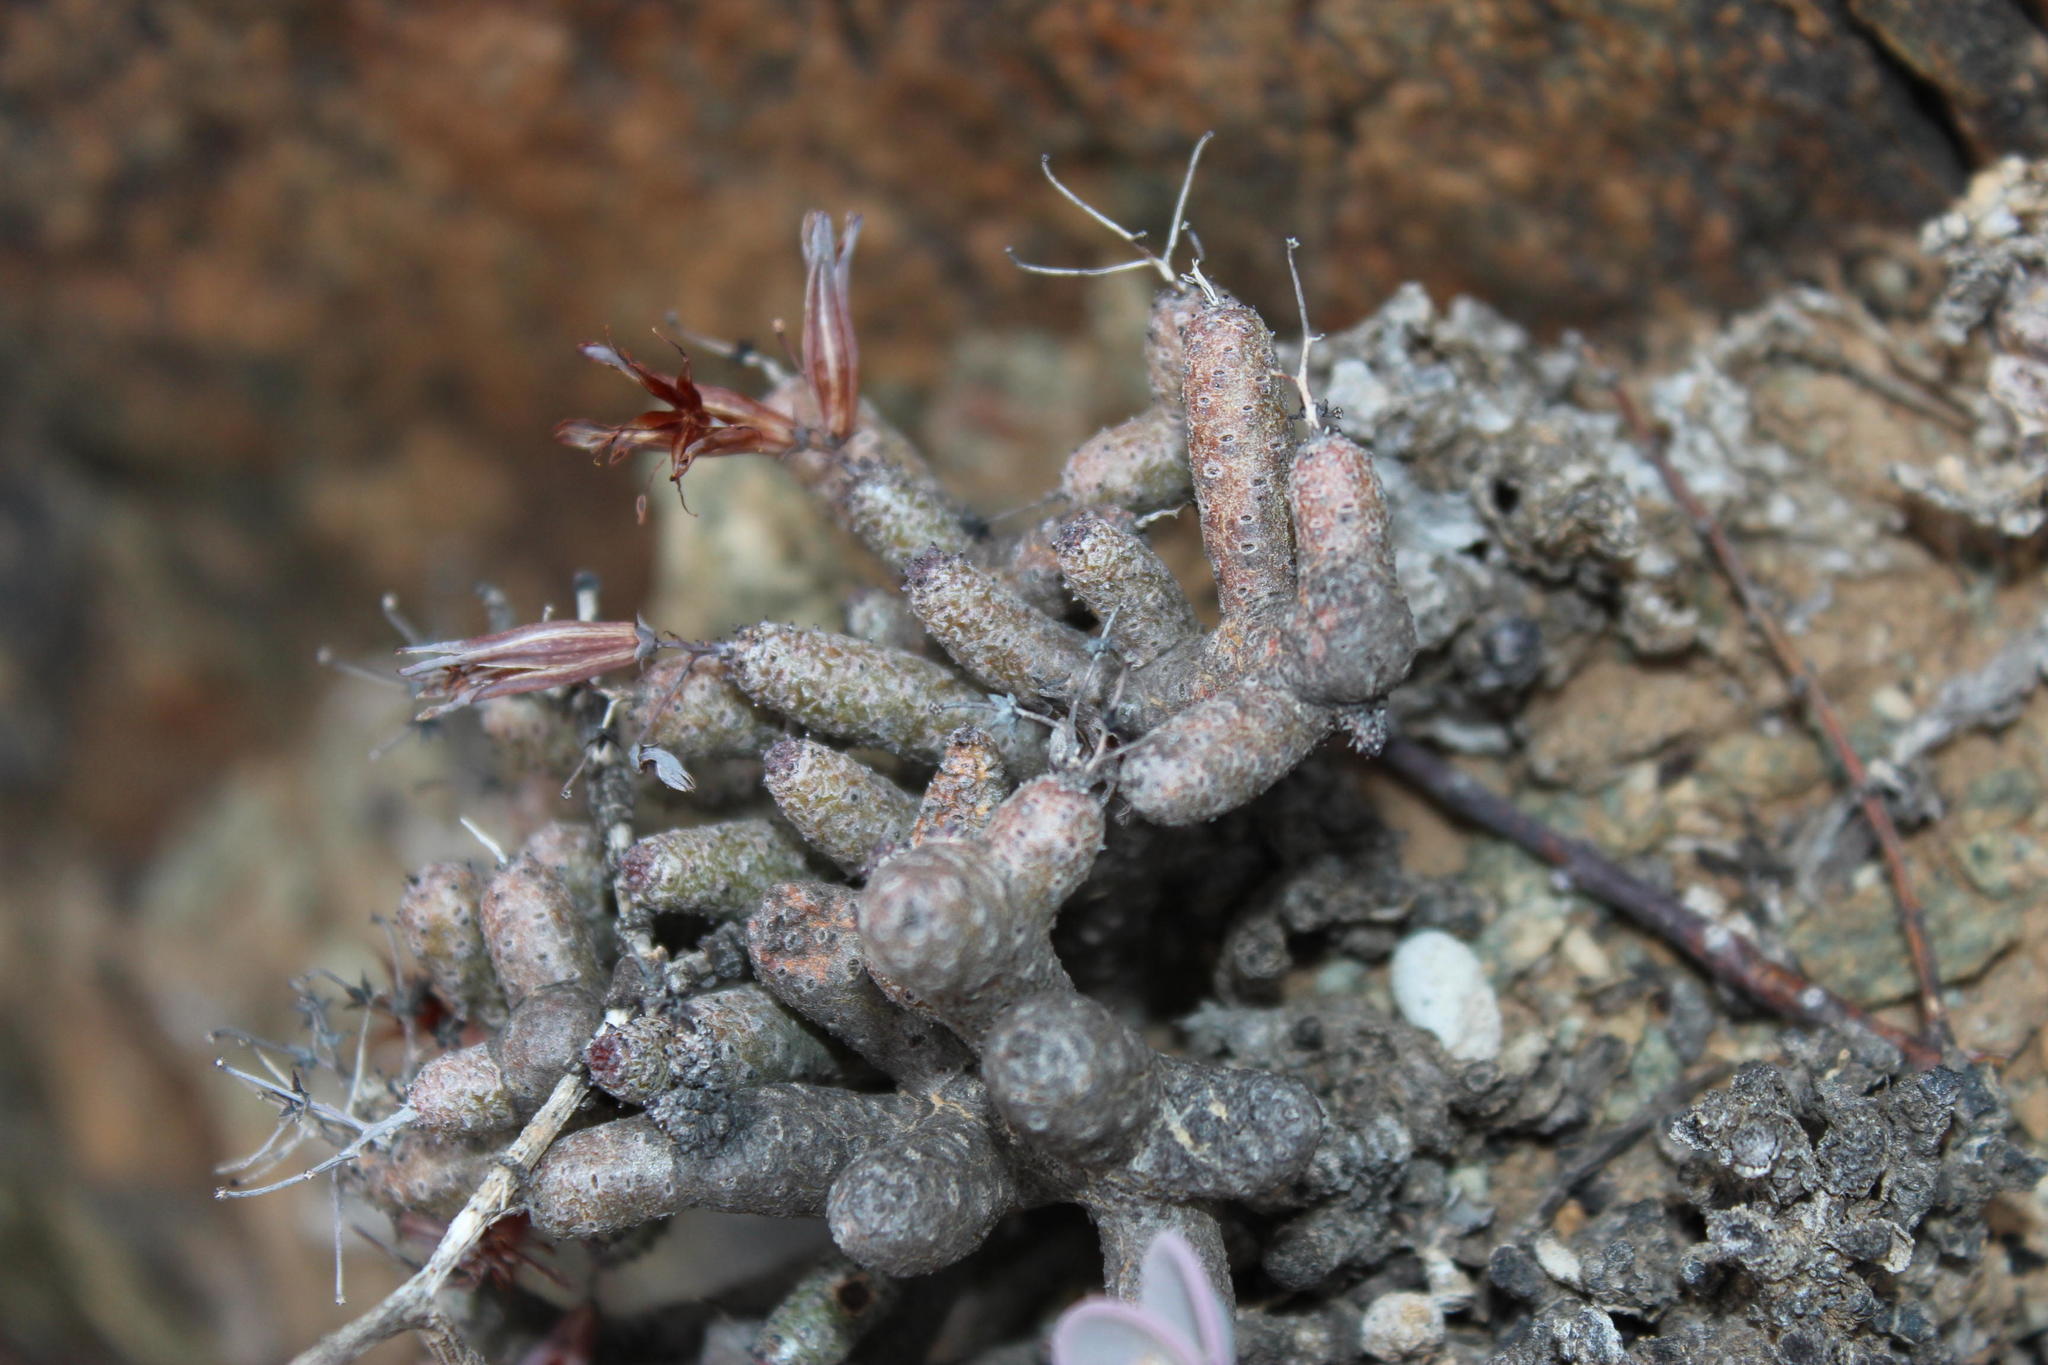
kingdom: Plantae
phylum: Tracheophyta
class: Magnoliopsida
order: Saxifragales
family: Crassulaceae
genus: Tylecodon
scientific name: Tylecodon buchholzianus
